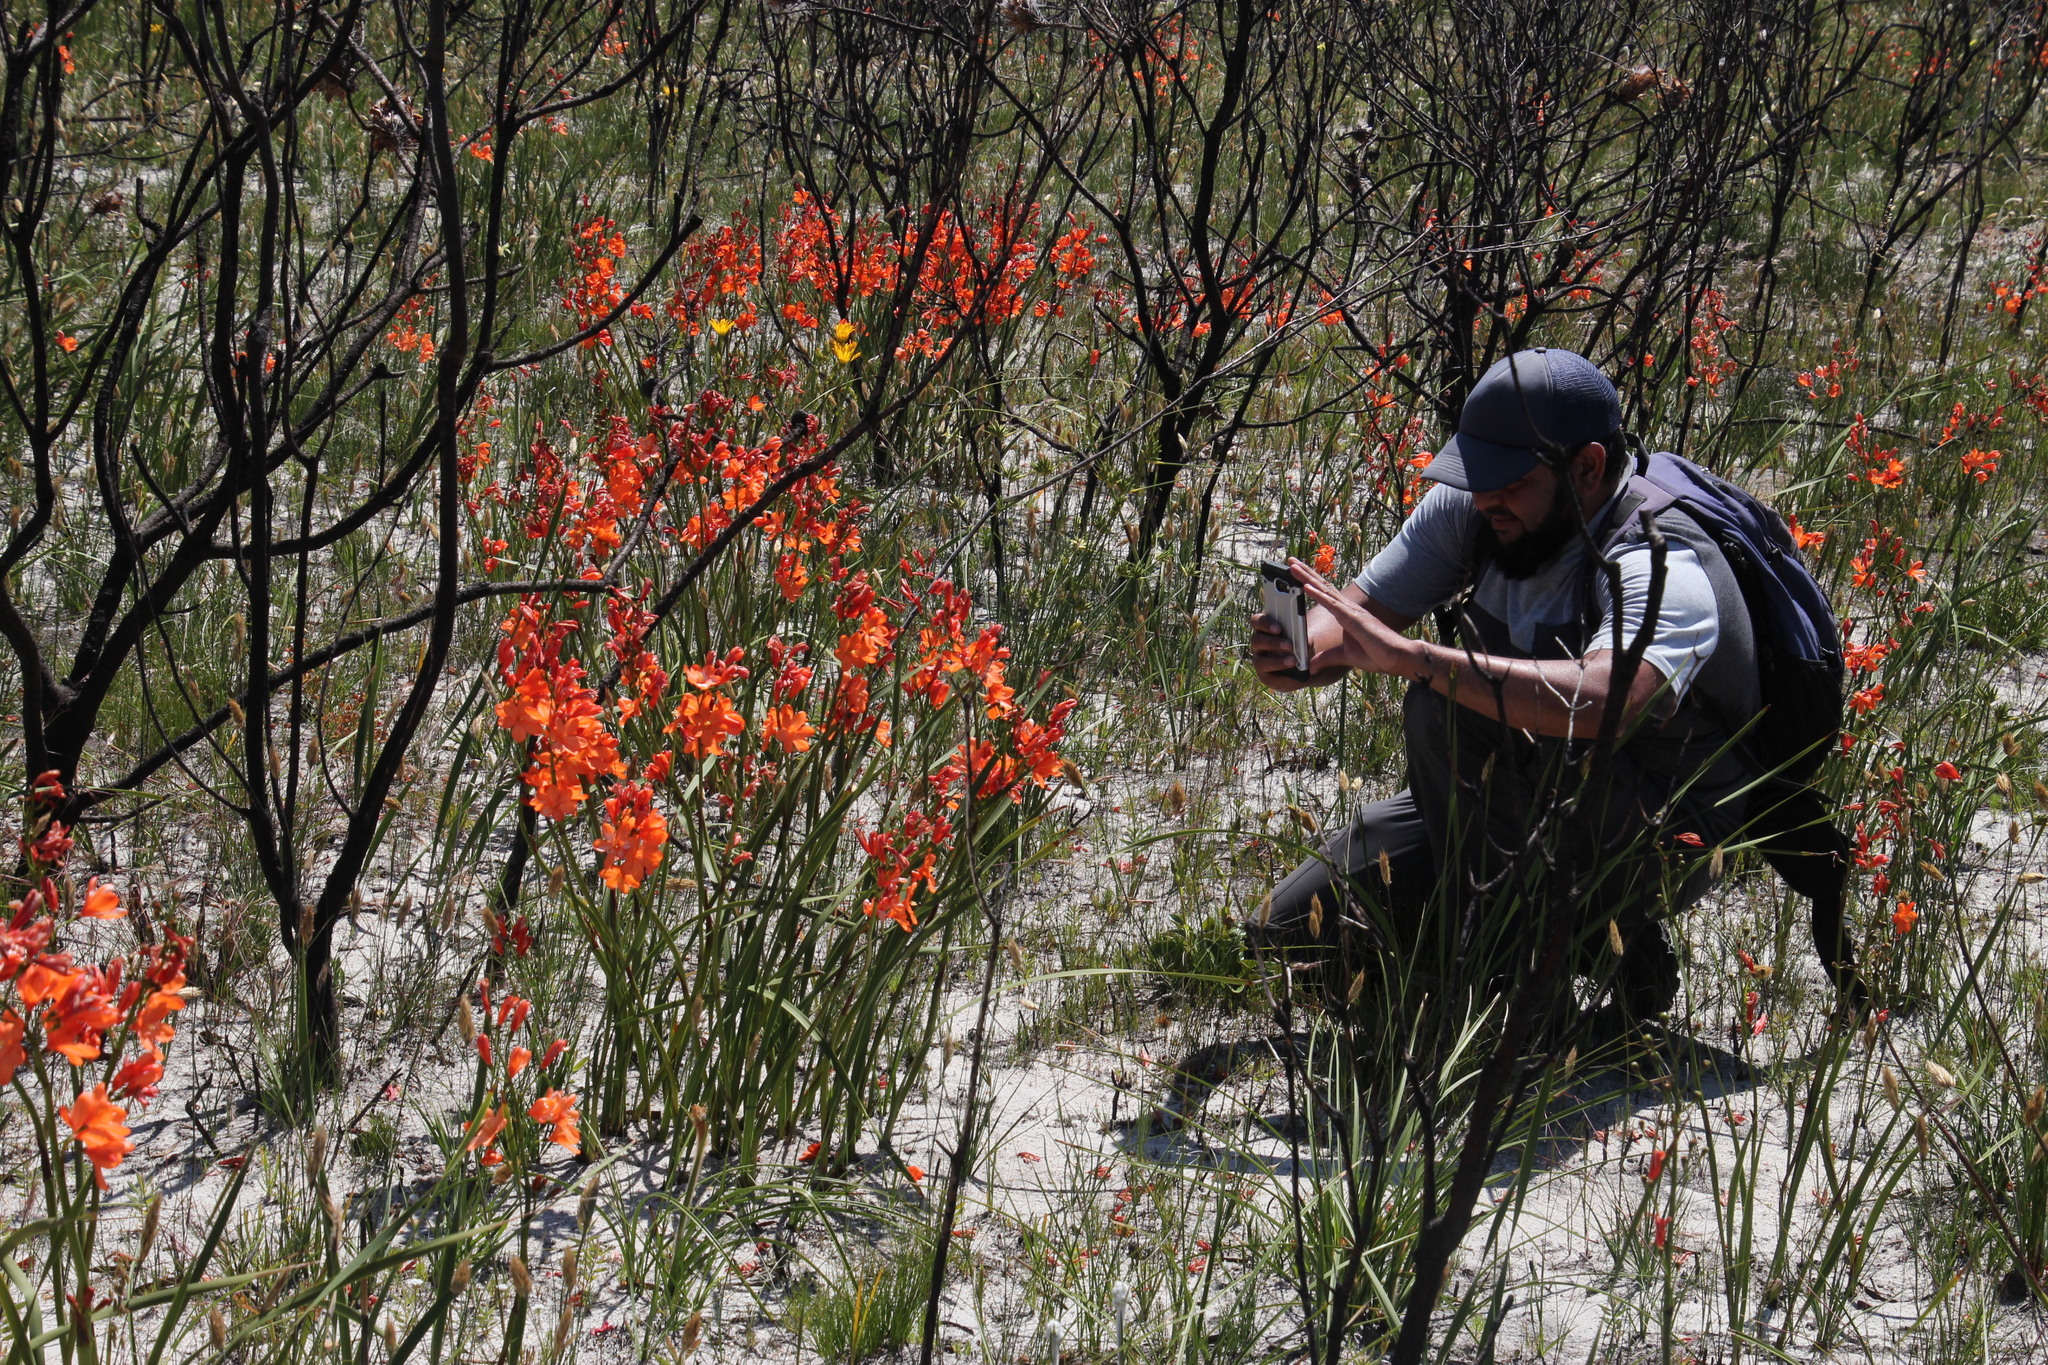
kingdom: Plantae
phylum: Tracheophyta
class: Liliopsida
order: Asparagales
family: Iridaceae
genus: Pillansia
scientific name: Pillansia templemannii
